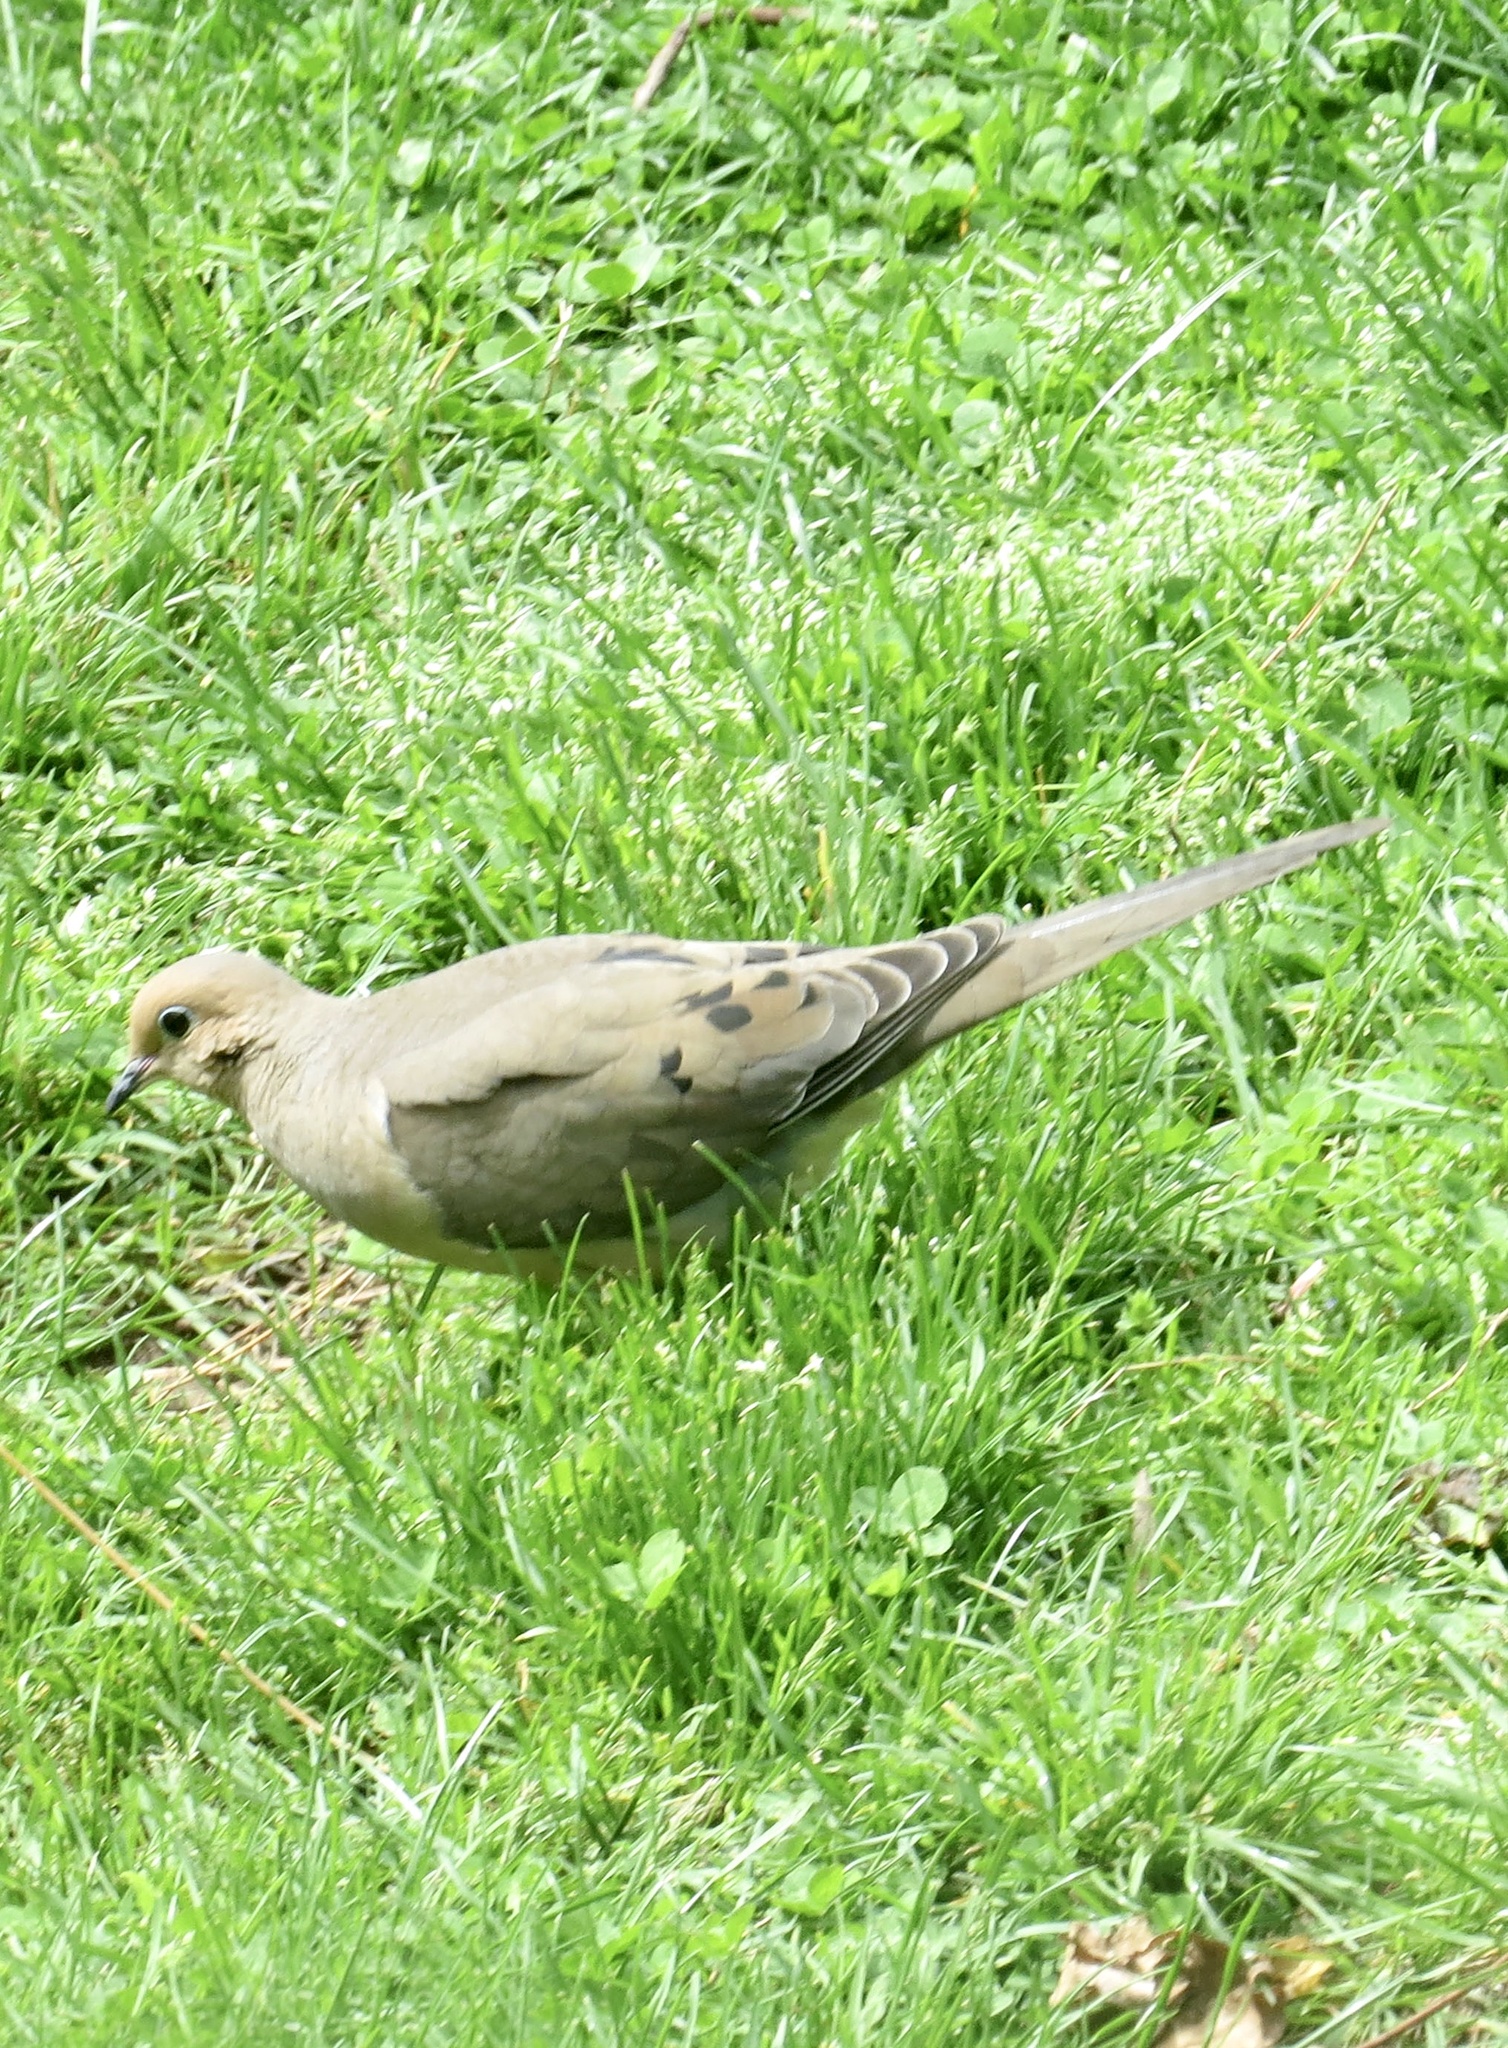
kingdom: Animalia
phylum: Chordata
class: Aves
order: Columbiformes
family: Columbidae
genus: Zenaida
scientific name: Zenaida macroura
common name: Mourning dove
